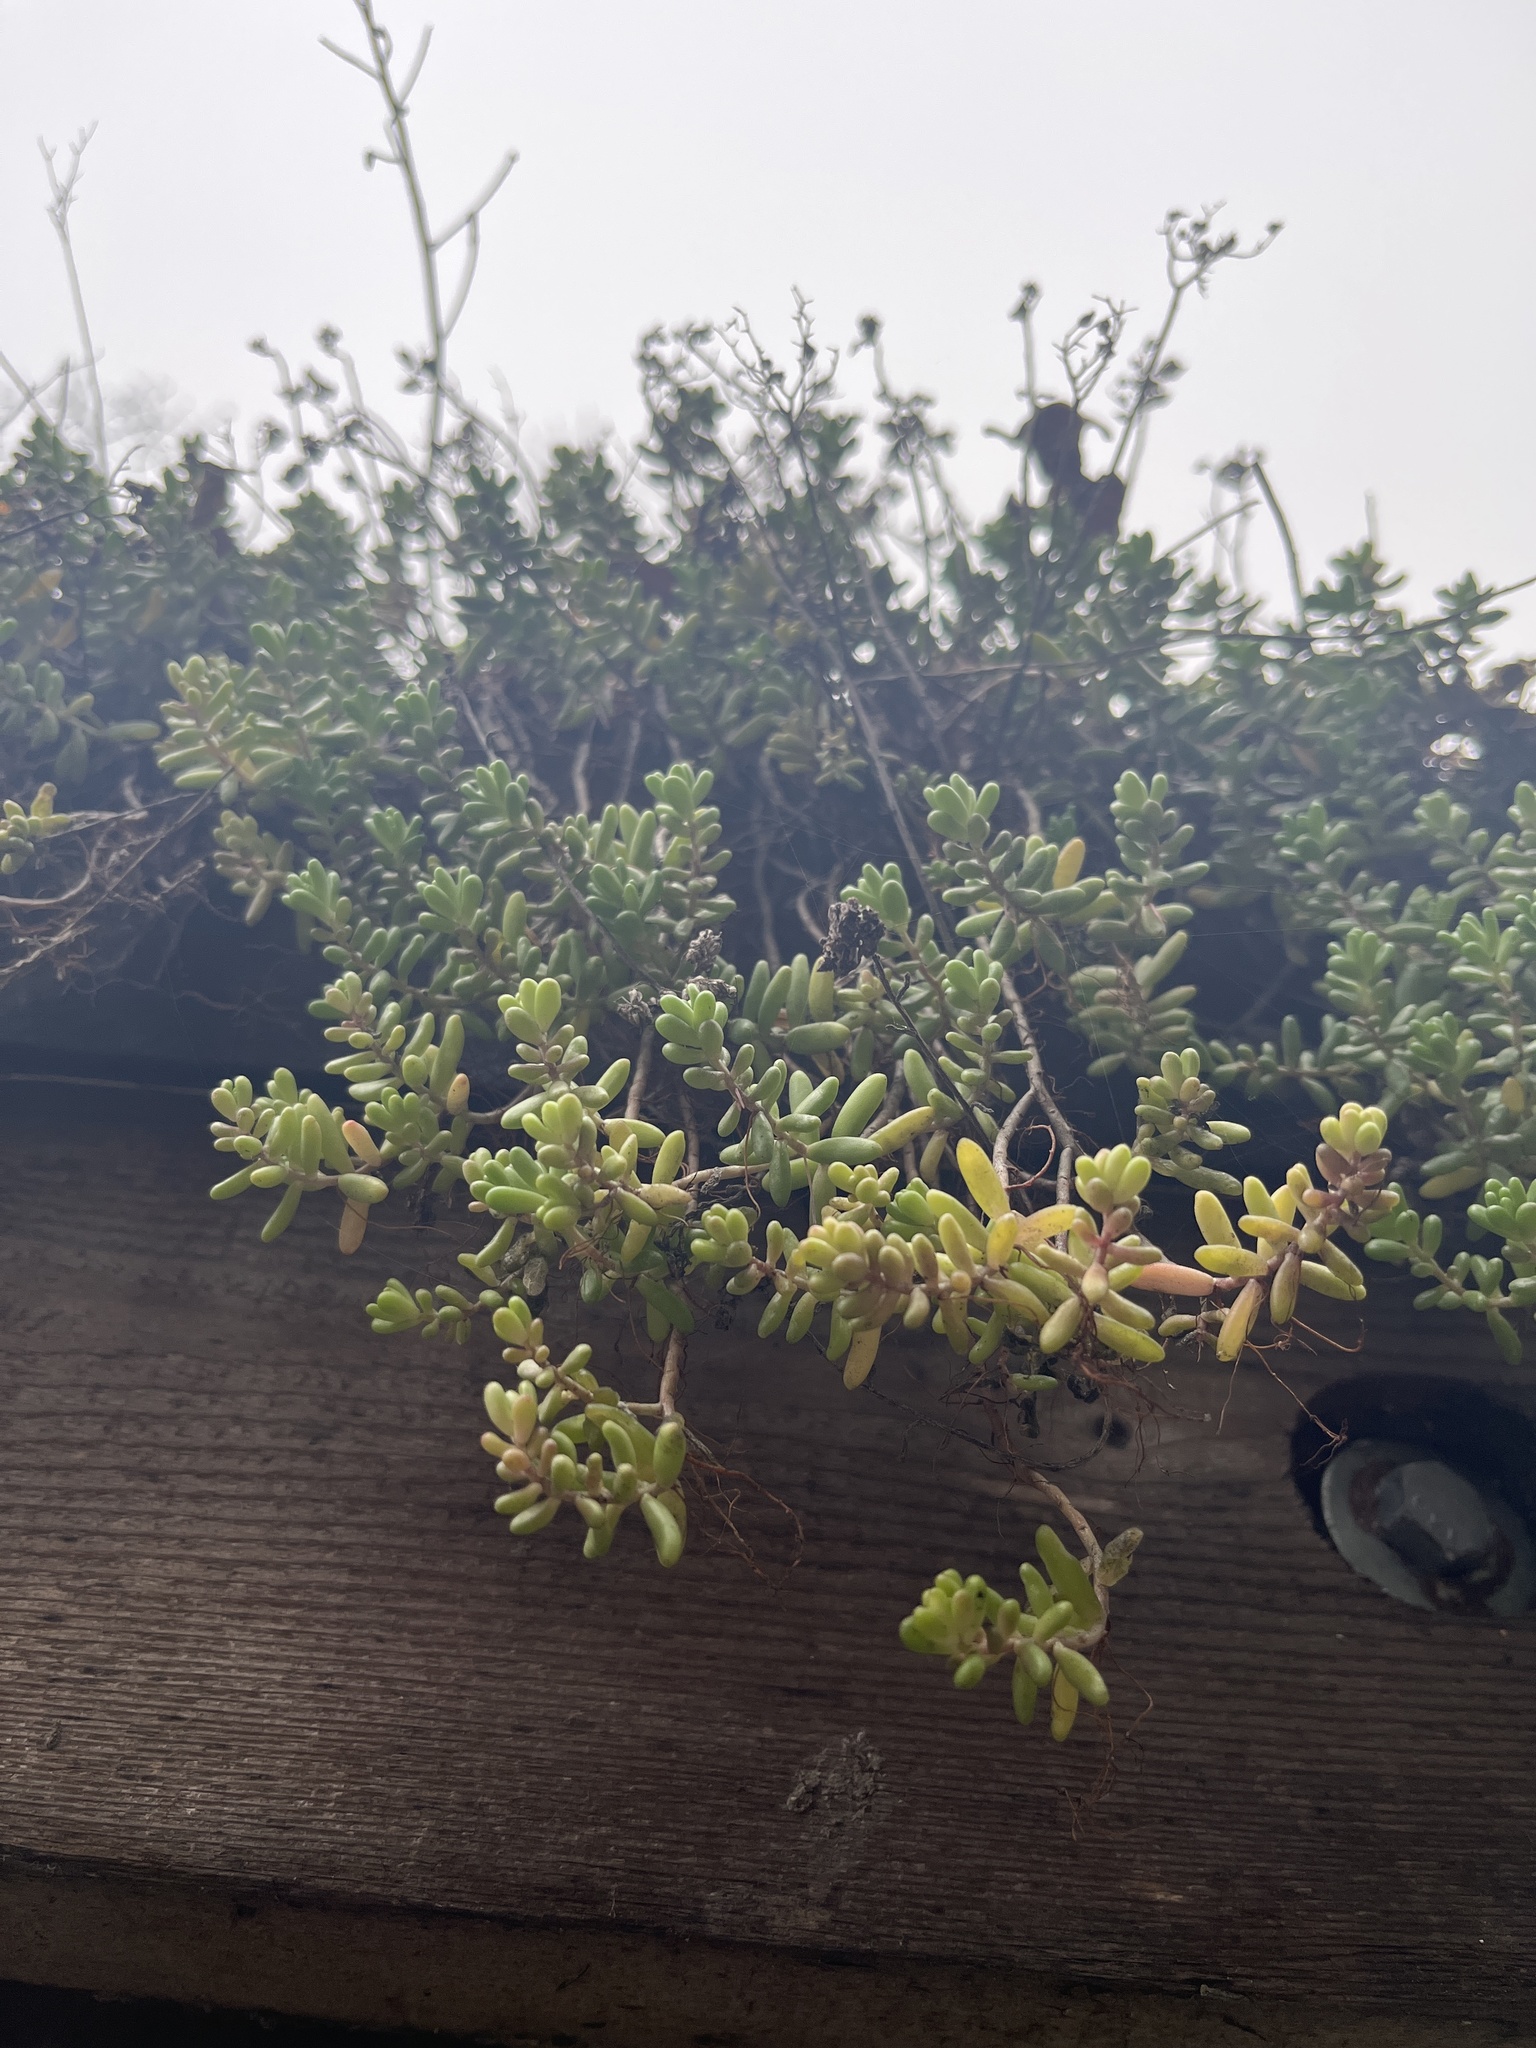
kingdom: Plantae
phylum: Tracheophyta
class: Magnoliopsida
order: Saxifragales
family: Crassulaceae
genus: Sedum
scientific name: Sedum album
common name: White stonecrop
